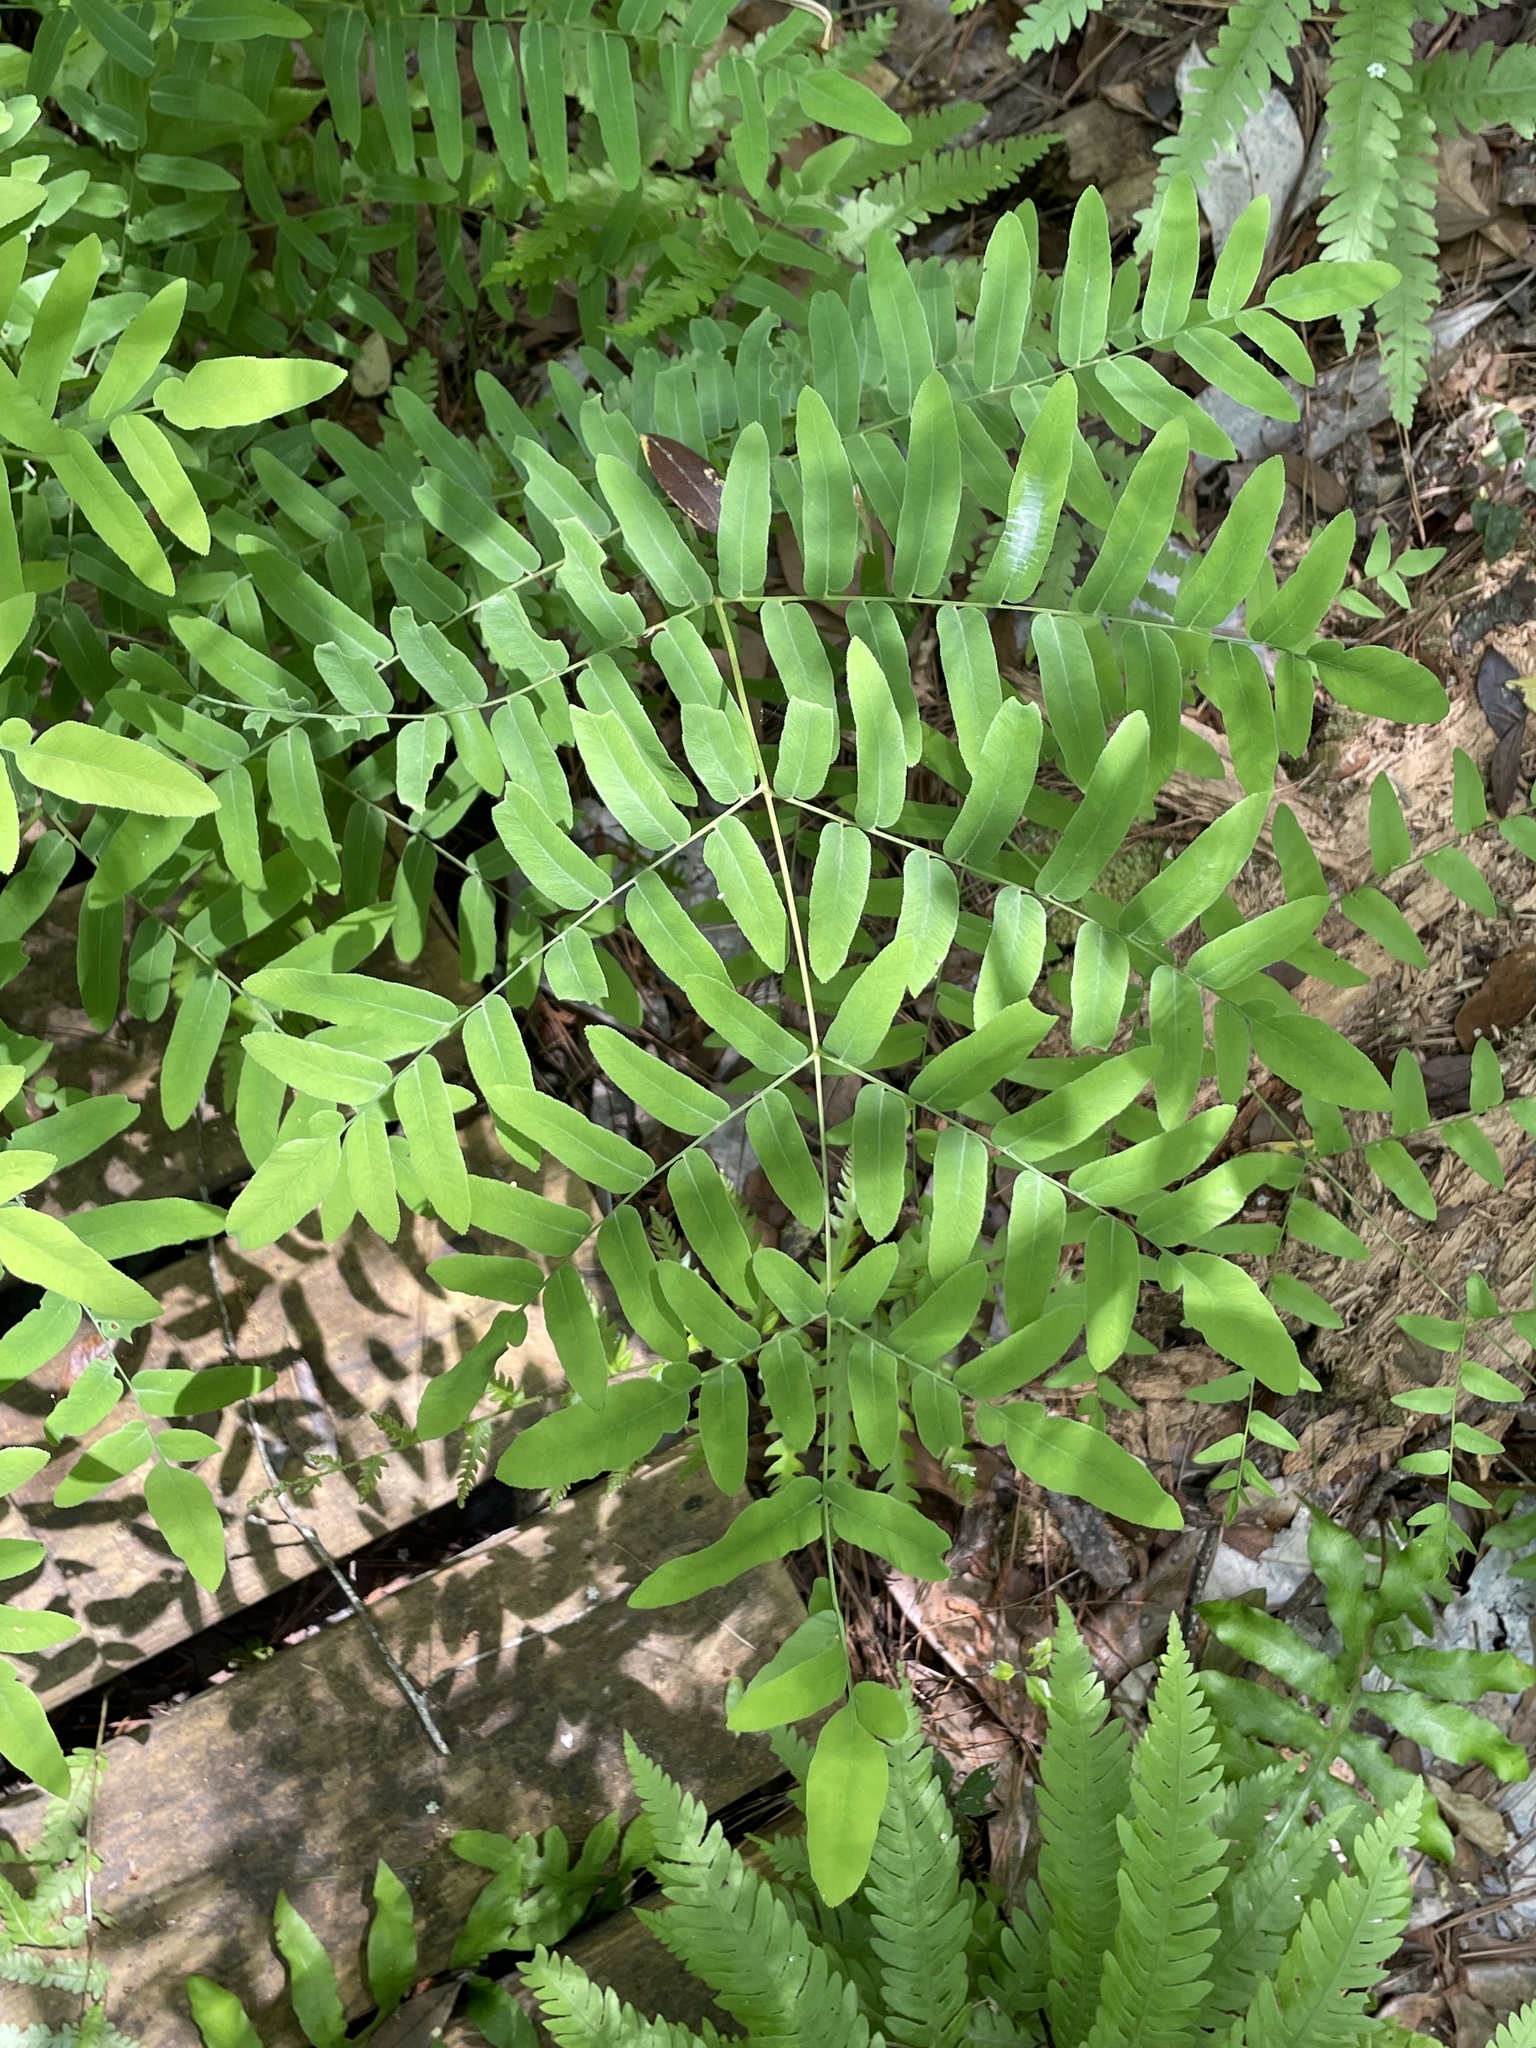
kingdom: Plantae
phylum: Tracheophyta
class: Polypodiopsida
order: Osmundales
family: Osmundaceae
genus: Osmunda
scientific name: Osmunda spectabilis
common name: American royal fern
